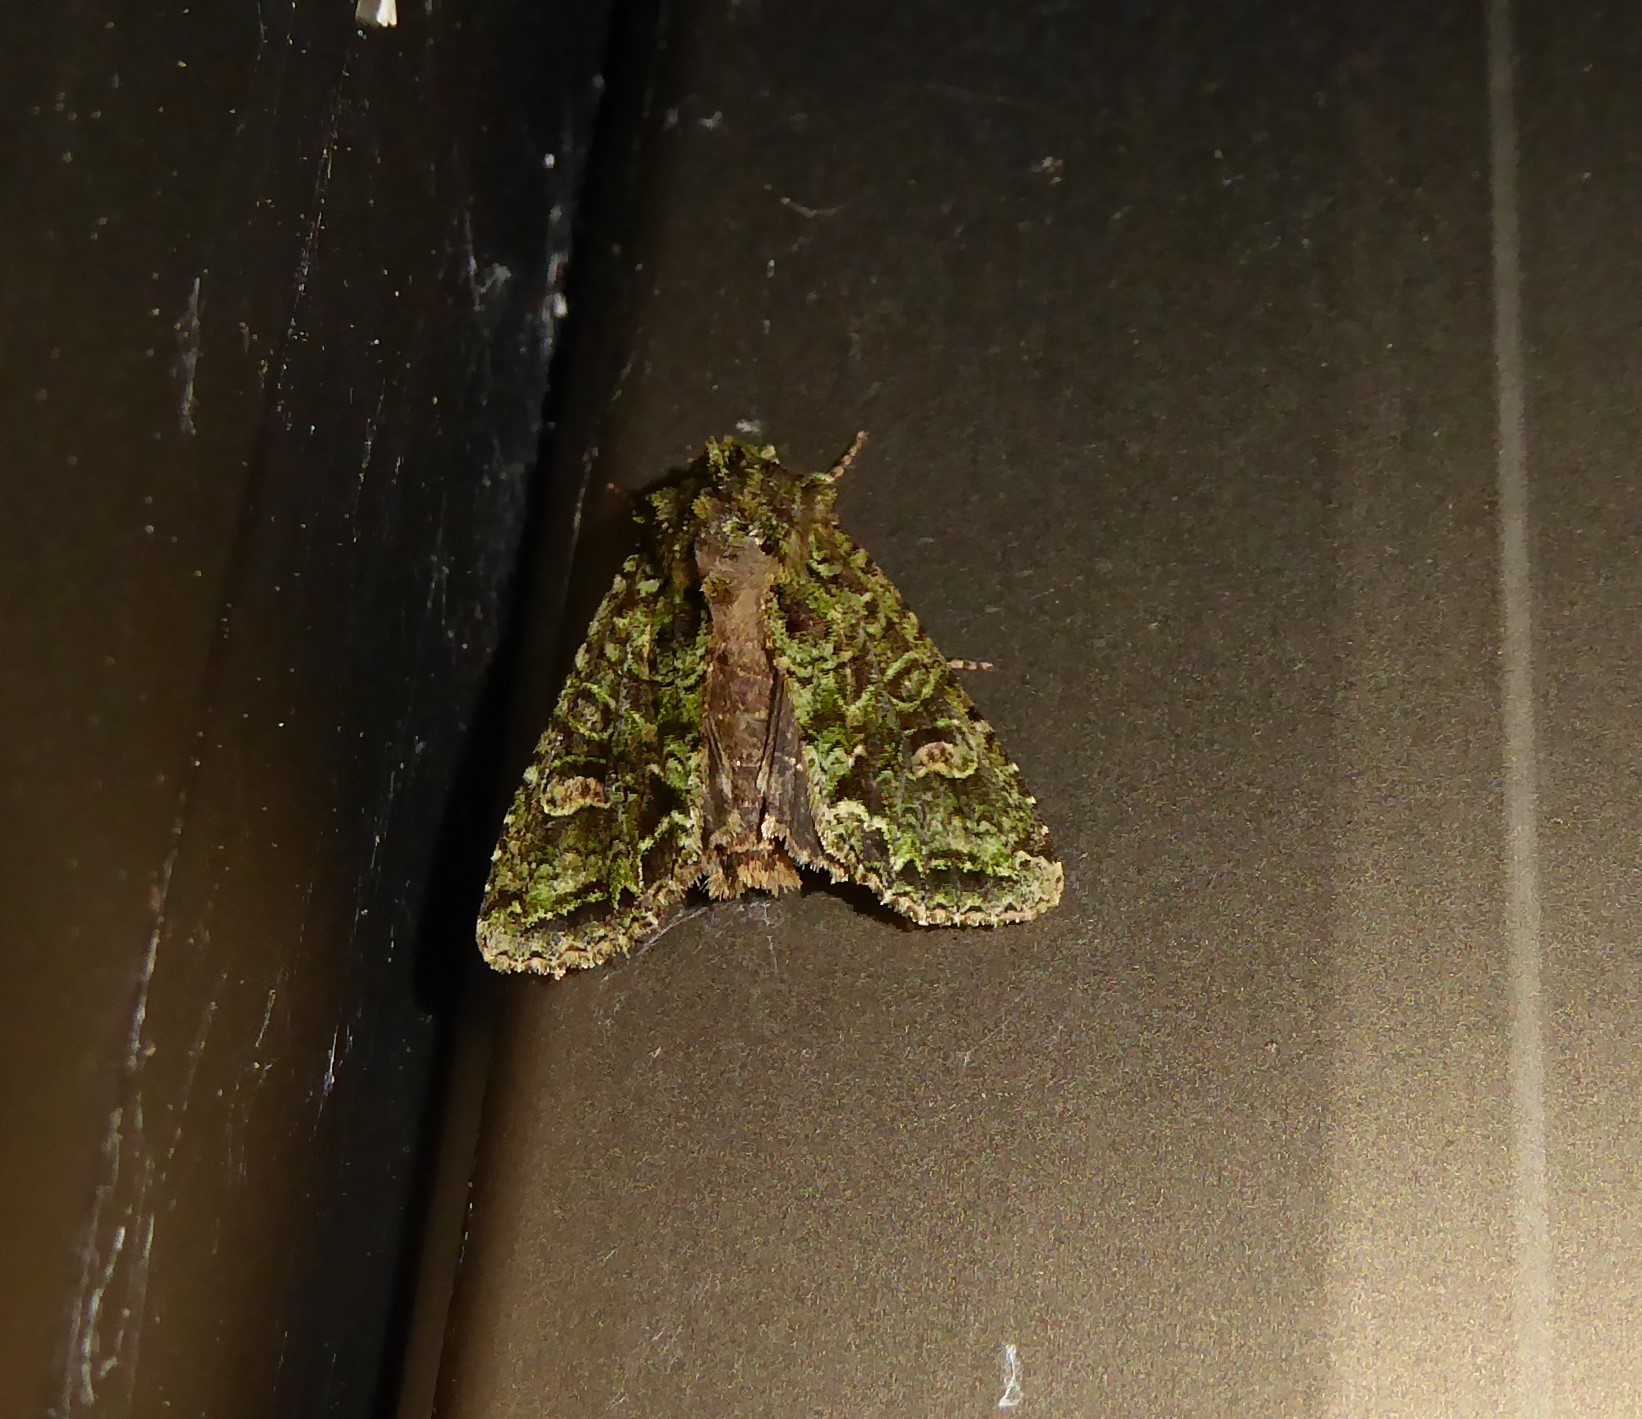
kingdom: Animalia
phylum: Arthropoda
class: Insecta
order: Lepidoptera
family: Noctuidae
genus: Ichneutica
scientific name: Ichneutica
